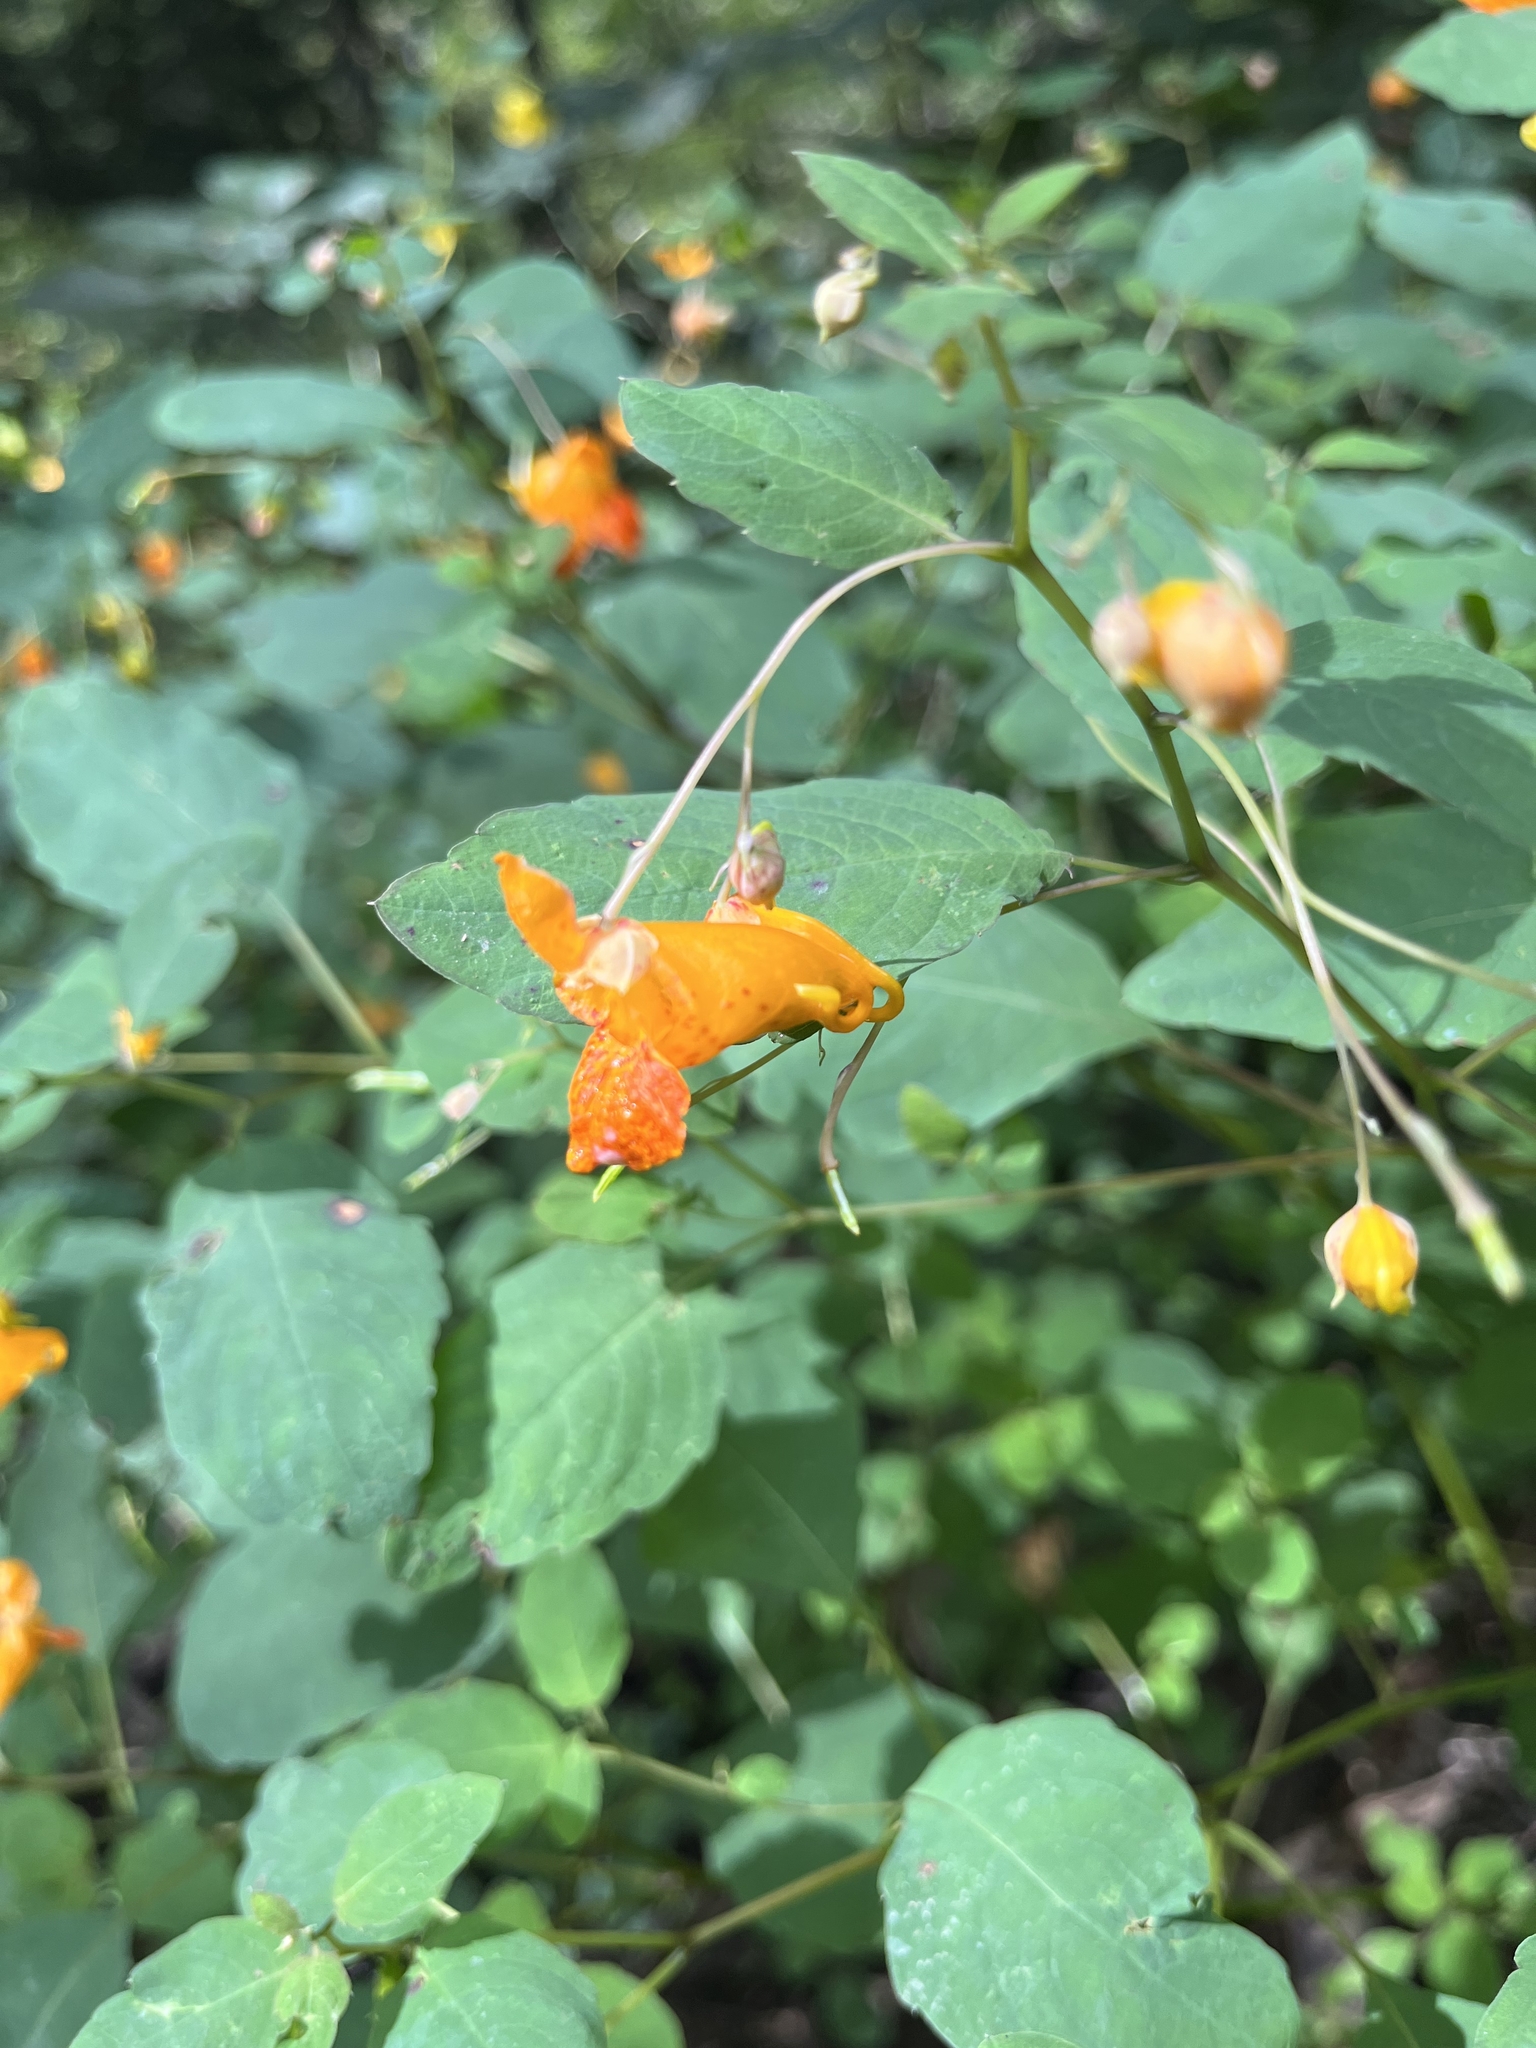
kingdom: Plantae
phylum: Tracheophyta
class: Magnoliopsida
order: Ericales
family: Balsaminaceae
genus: Impatiens
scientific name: Impatiens capensis
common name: Orange balsam
